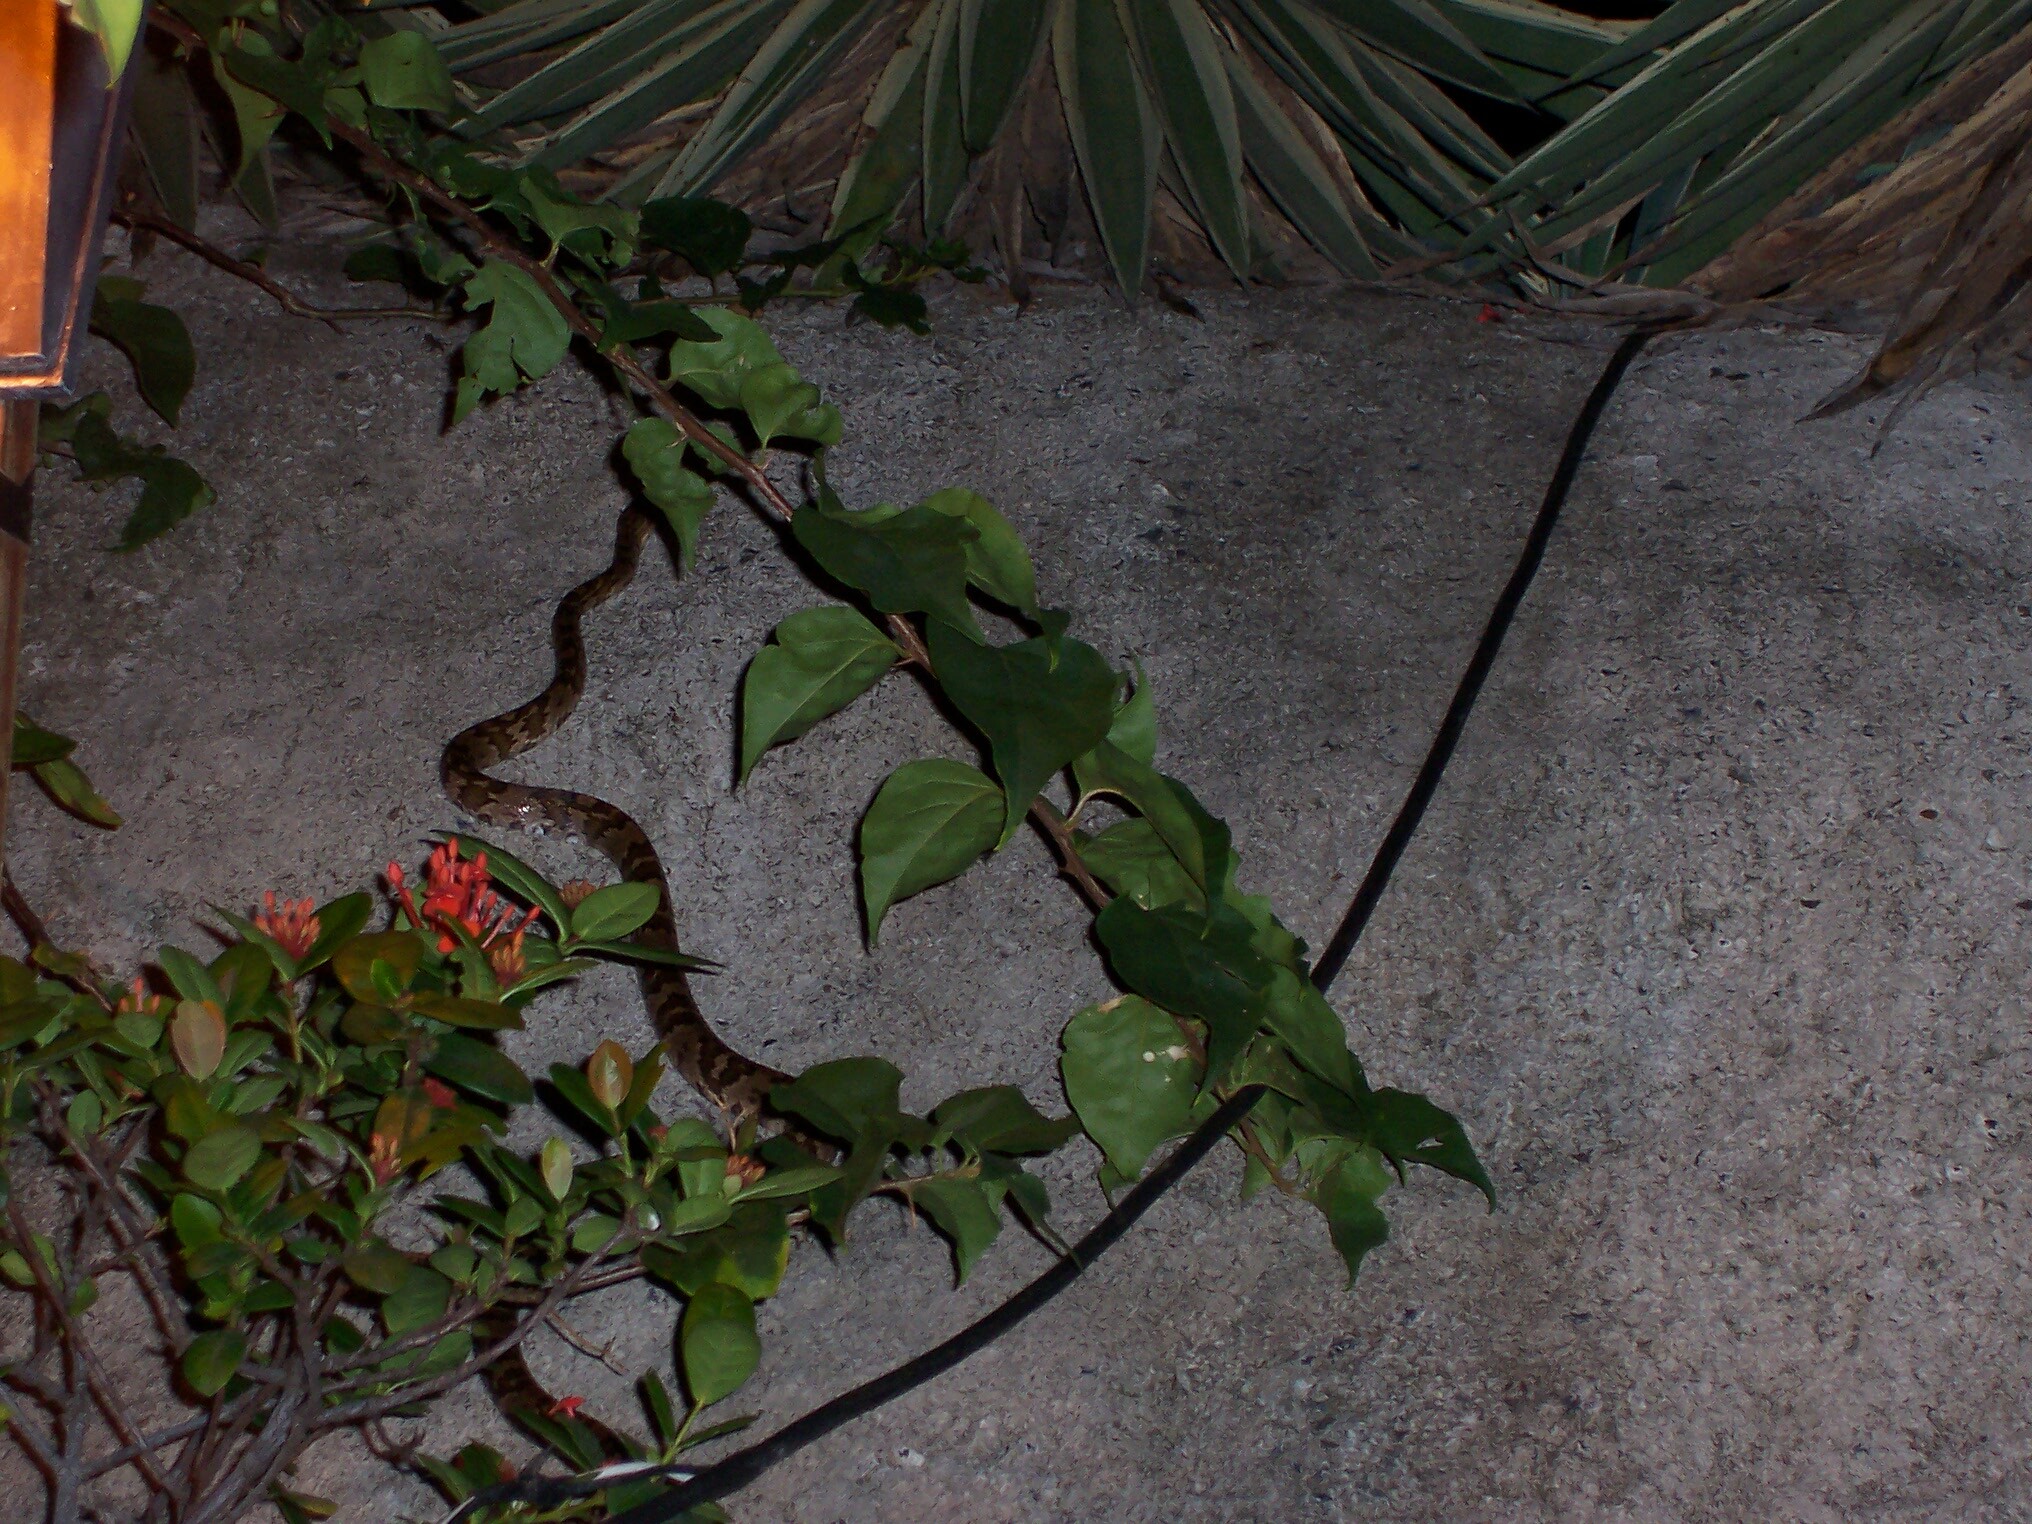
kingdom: Animalia
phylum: Chordata
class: Squamata
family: Colubridae
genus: Trimorphodon
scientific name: Trimorphodon quadruplex
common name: Central american lyre snake
